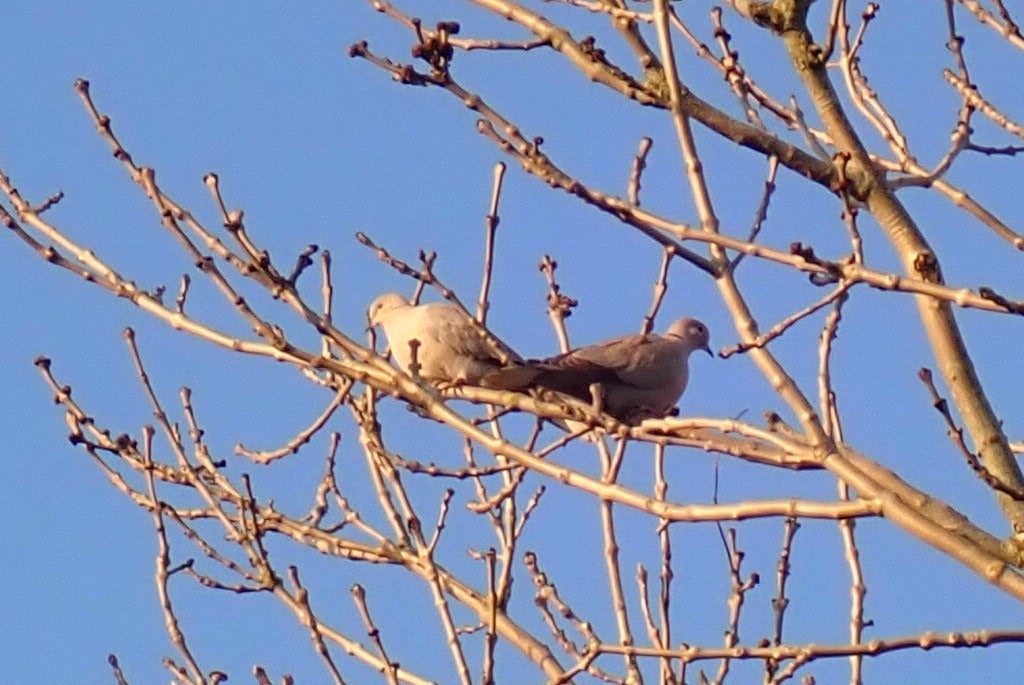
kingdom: Animalia
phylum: Chordata
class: Aves
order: Columbiformes
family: Columbidae
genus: Streptopelia
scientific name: Streptopelia decaocto
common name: Eurasian collared dove
